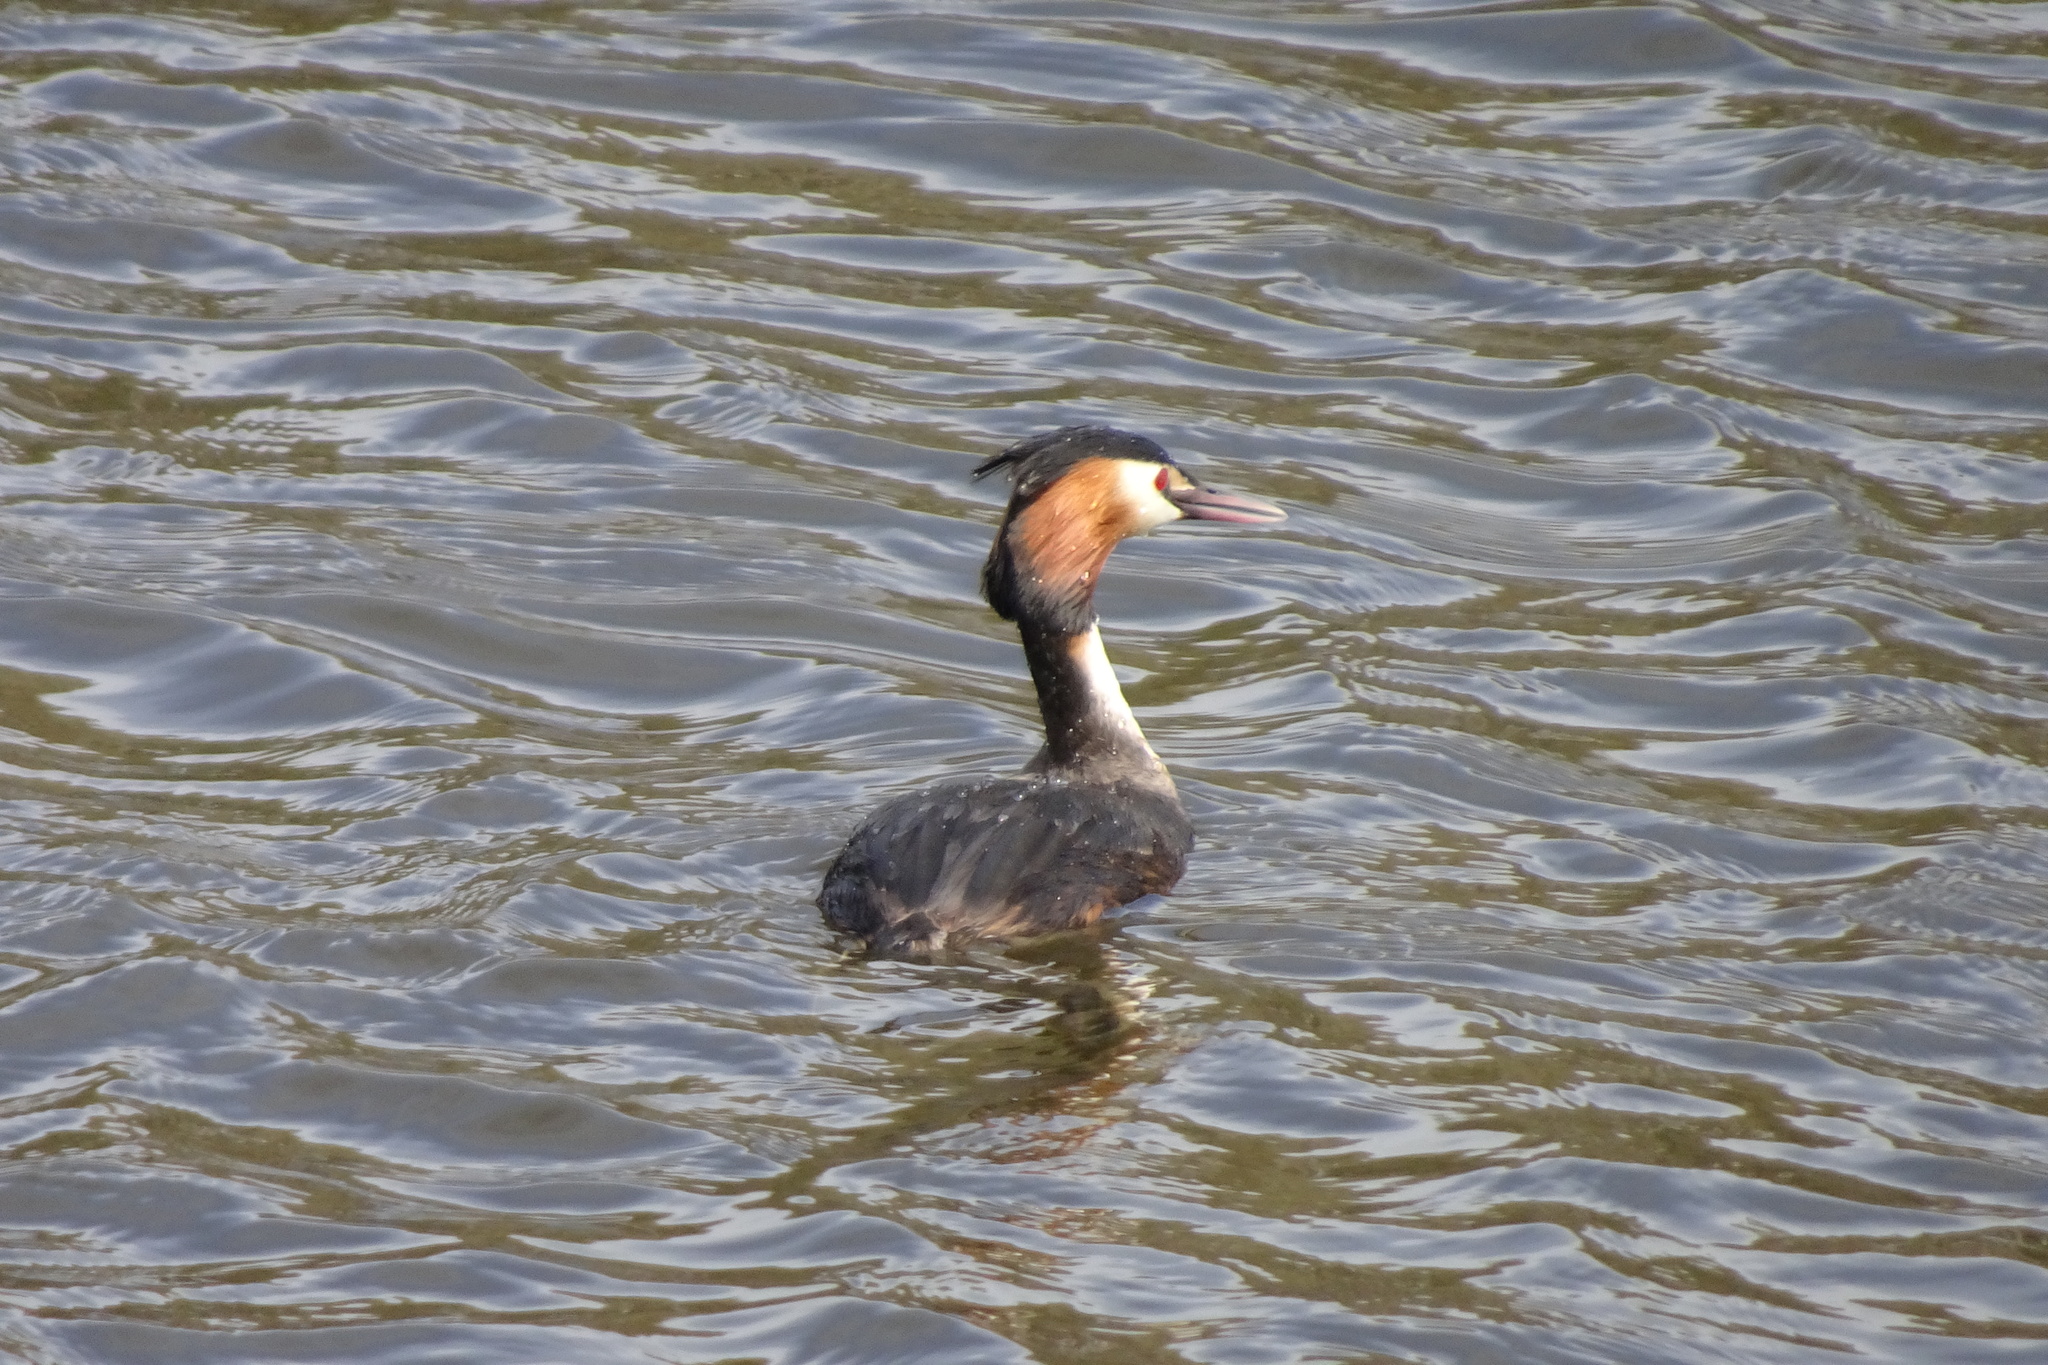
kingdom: Animalia
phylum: Chordata
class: Aves
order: Podicipediformes
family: Podicipedidae
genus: Podiceps
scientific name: Podiceps cristatus
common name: Great crested grebe
